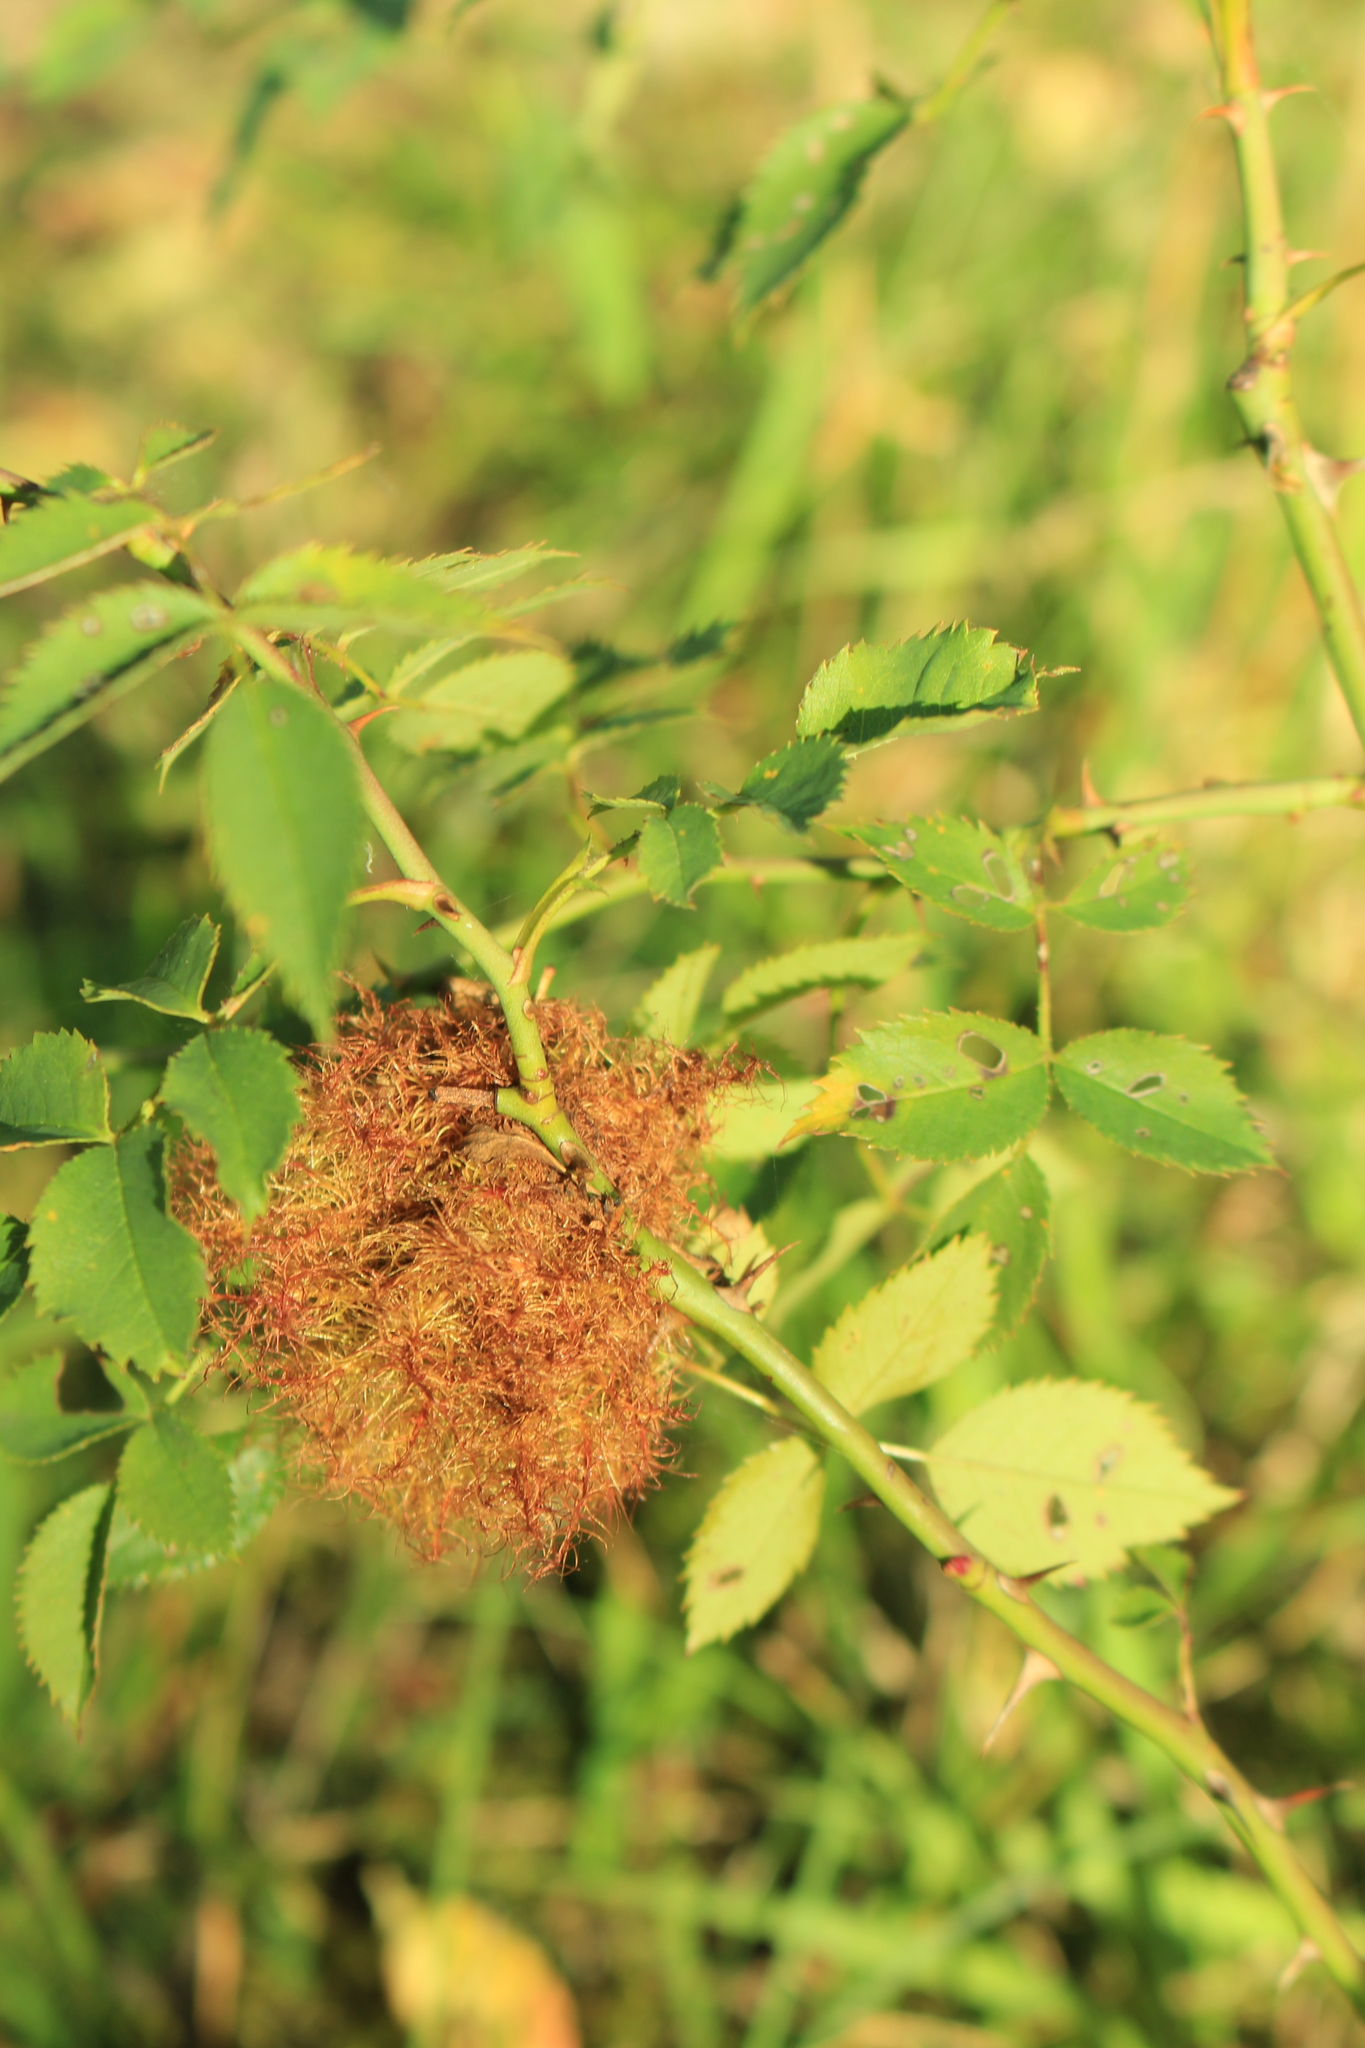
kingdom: Animalia
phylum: Arthropoda
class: Insecta
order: Hymenoptera
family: Cynipidae
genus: Diplolepis
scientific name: Diplolepis rosae
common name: Bedeguar gall
